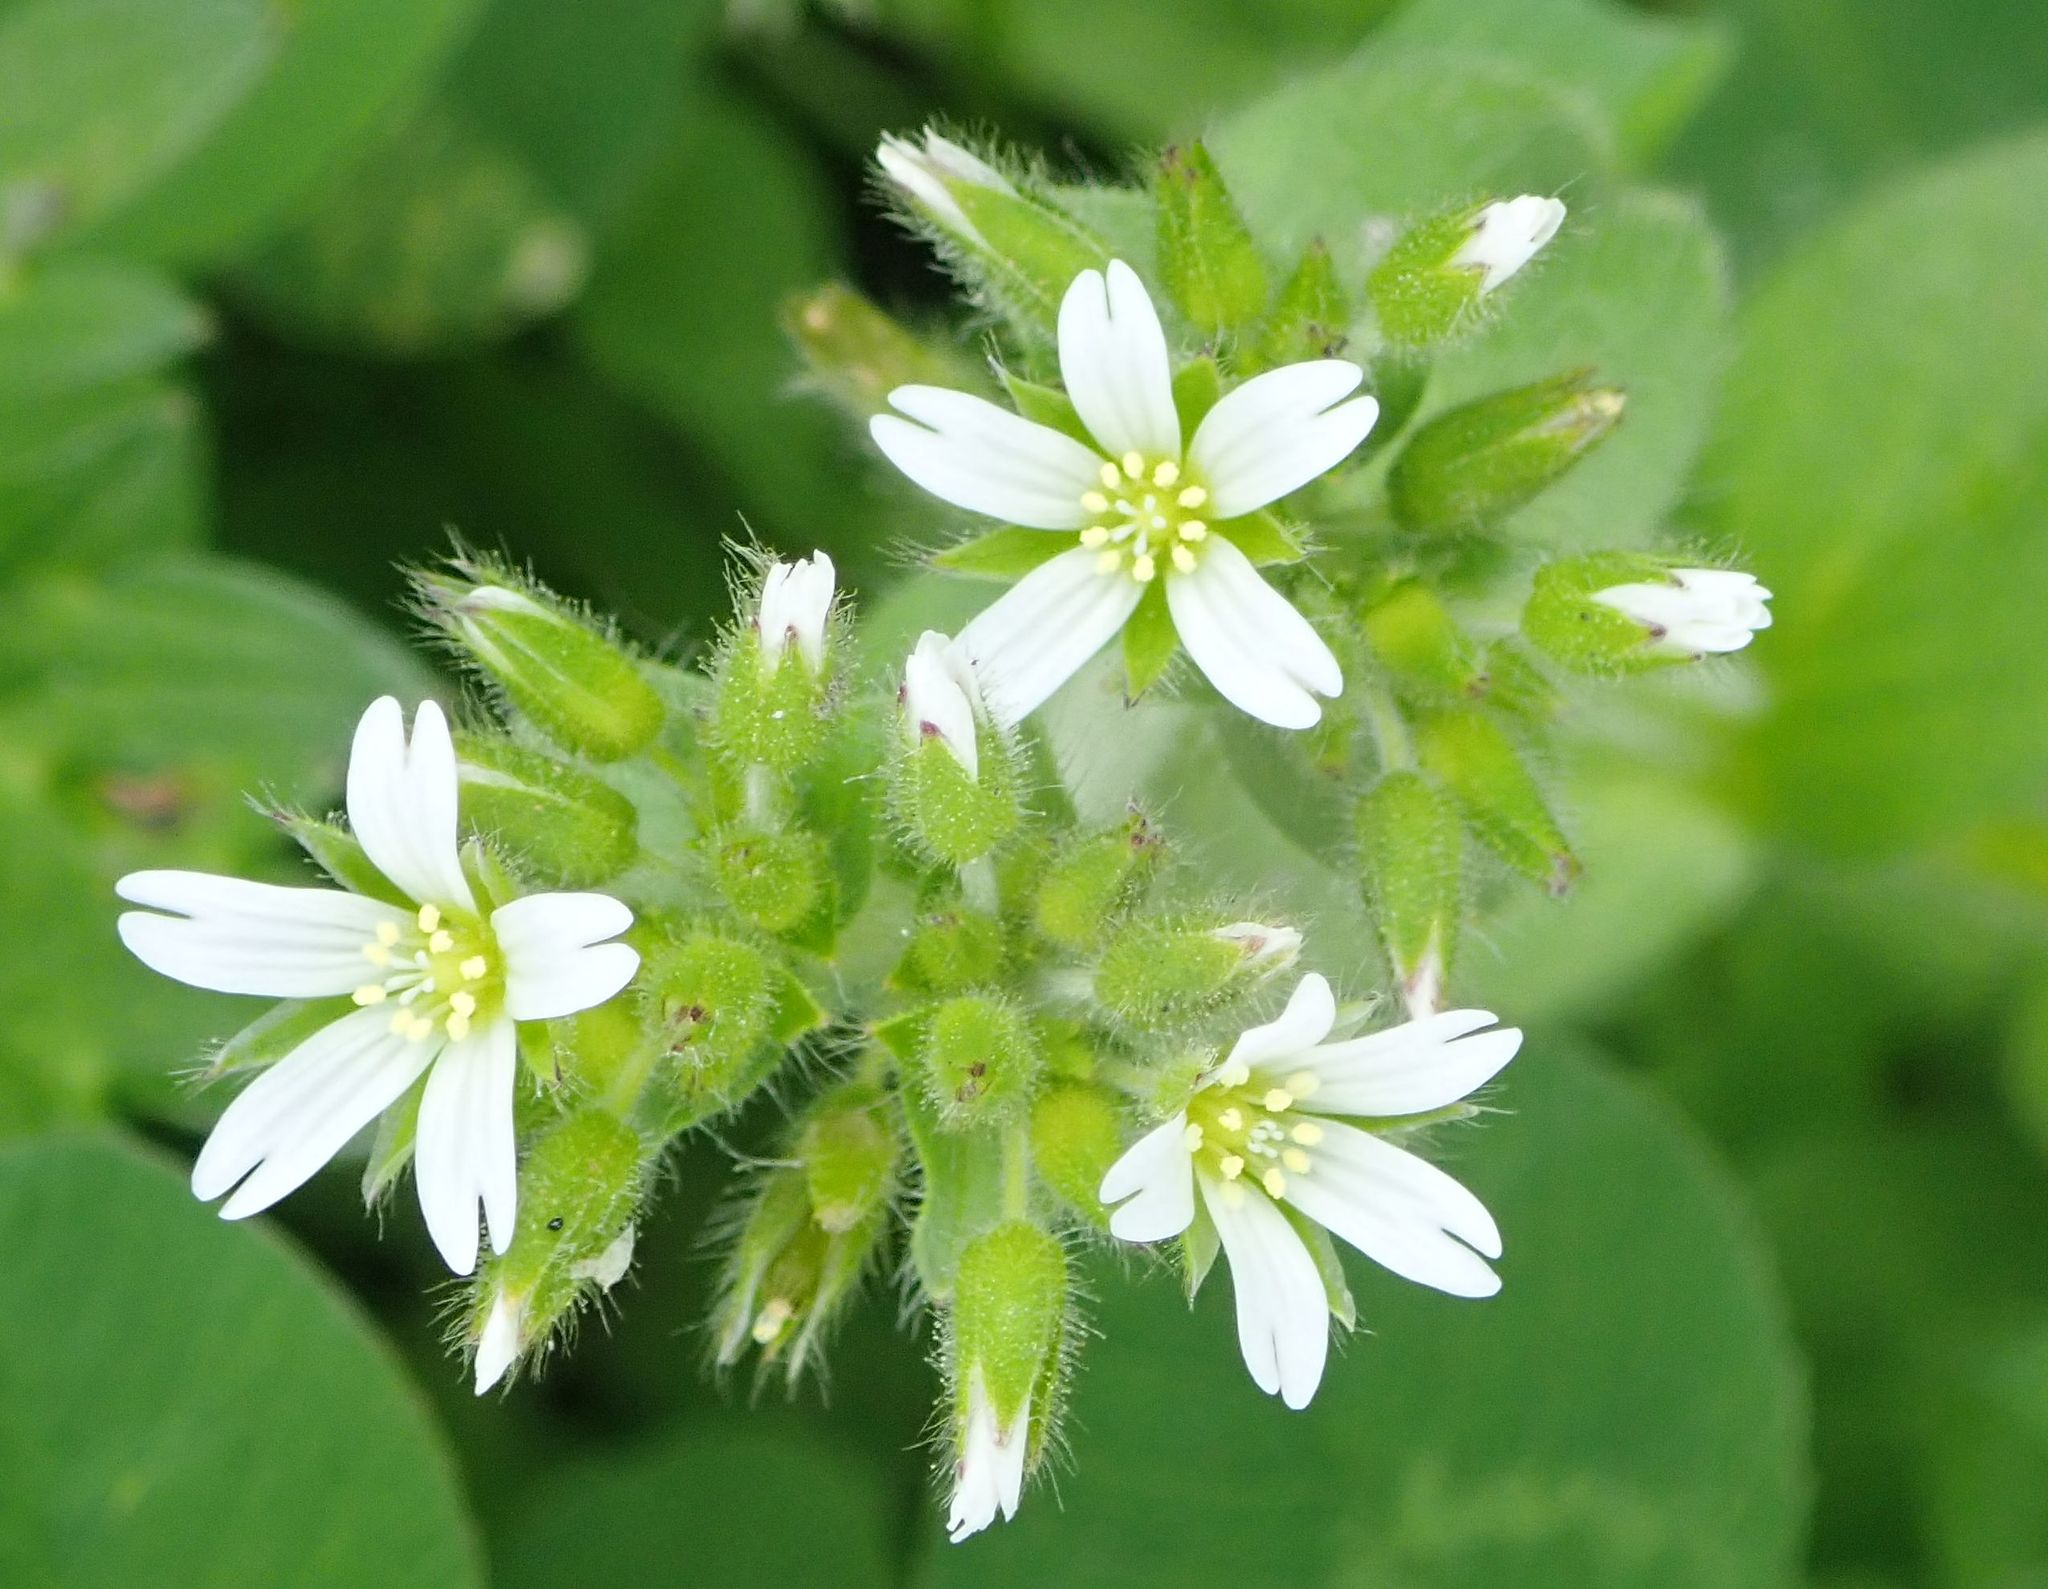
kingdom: Plantae
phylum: Tracheophyta
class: Magnoliopsida
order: Caryophyllales
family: Caryophyllaceae
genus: Cerastium
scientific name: Cerastium glomeratum
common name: Sticky chickweed
